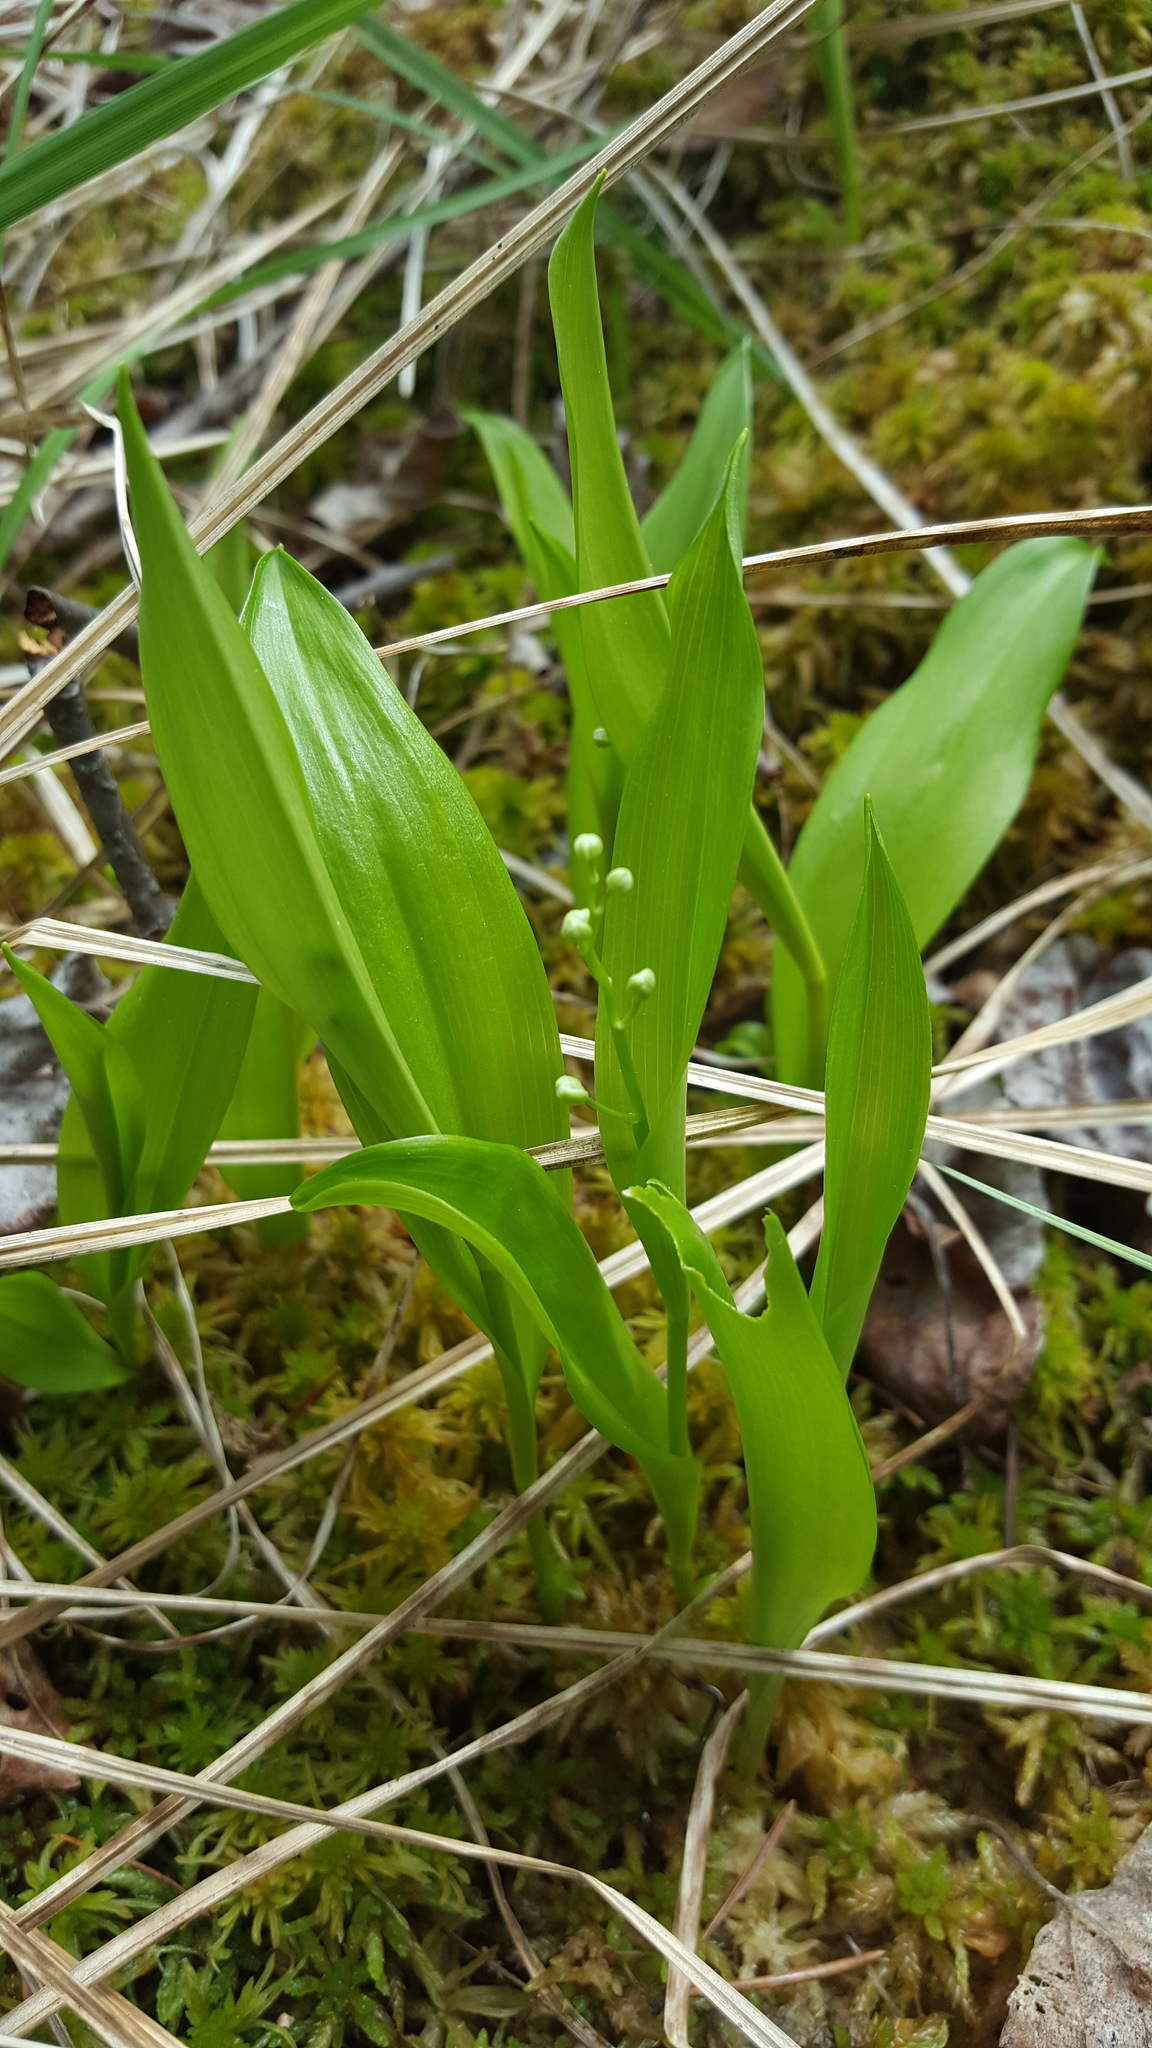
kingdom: Plantae
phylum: Tracheophyta
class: Liliopsida
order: Asparagales
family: Asparagaceae
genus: Maianthemum
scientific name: Maianthemum trifolium
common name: Swamp false solomon's seal
